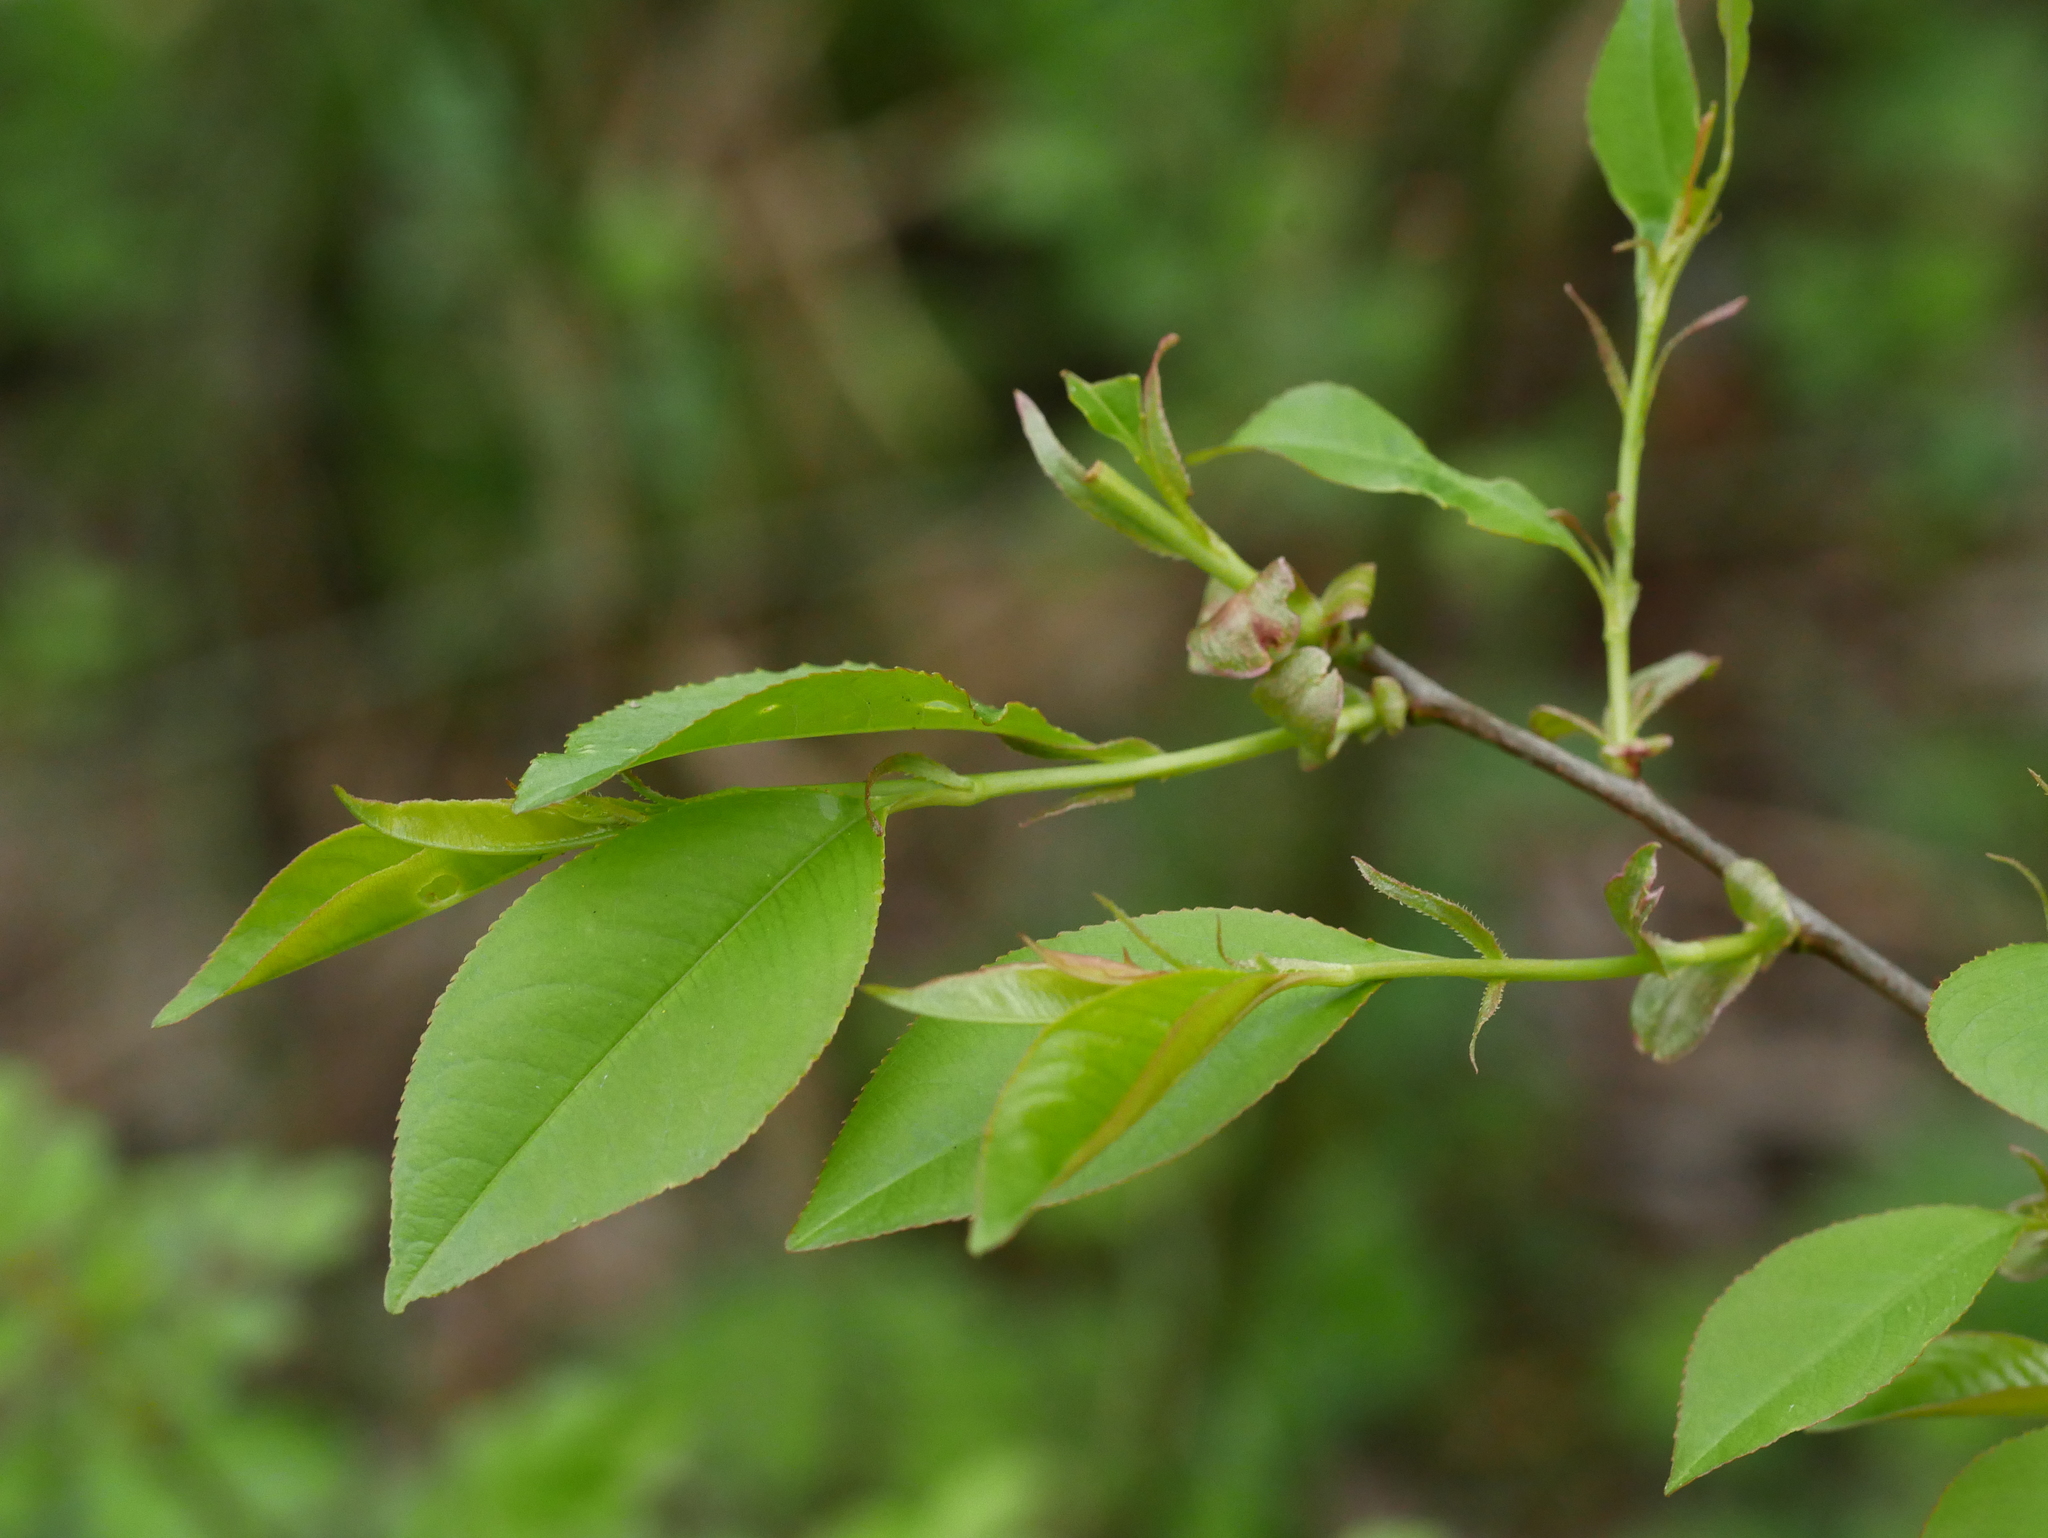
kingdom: Plantae
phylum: Tracheophyta
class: Magnoliopsida
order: Rosales
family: Rosaceae
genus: Prunus
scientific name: Prunus serotina
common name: Black cherry
